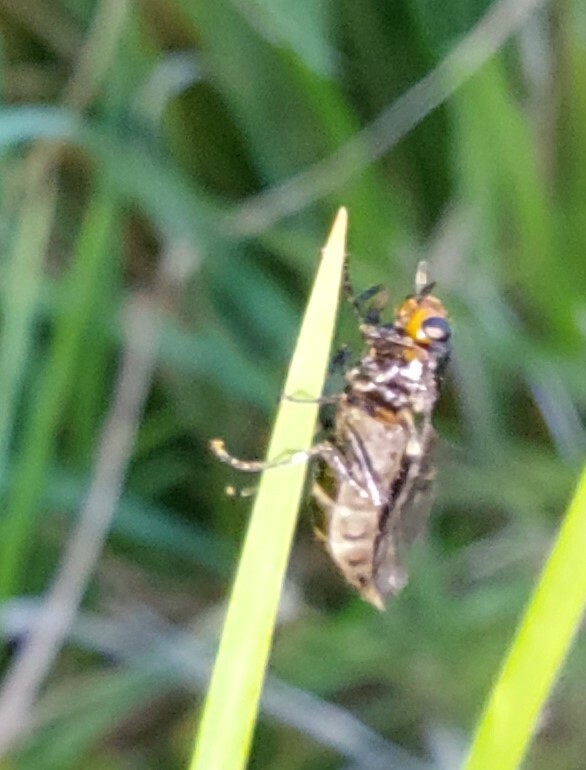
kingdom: Animalia
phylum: Arthropoda
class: Insecta
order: Diptera
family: Stratiomyidae
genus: Inopus
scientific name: Inopus rubriceps
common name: Soldier fly
